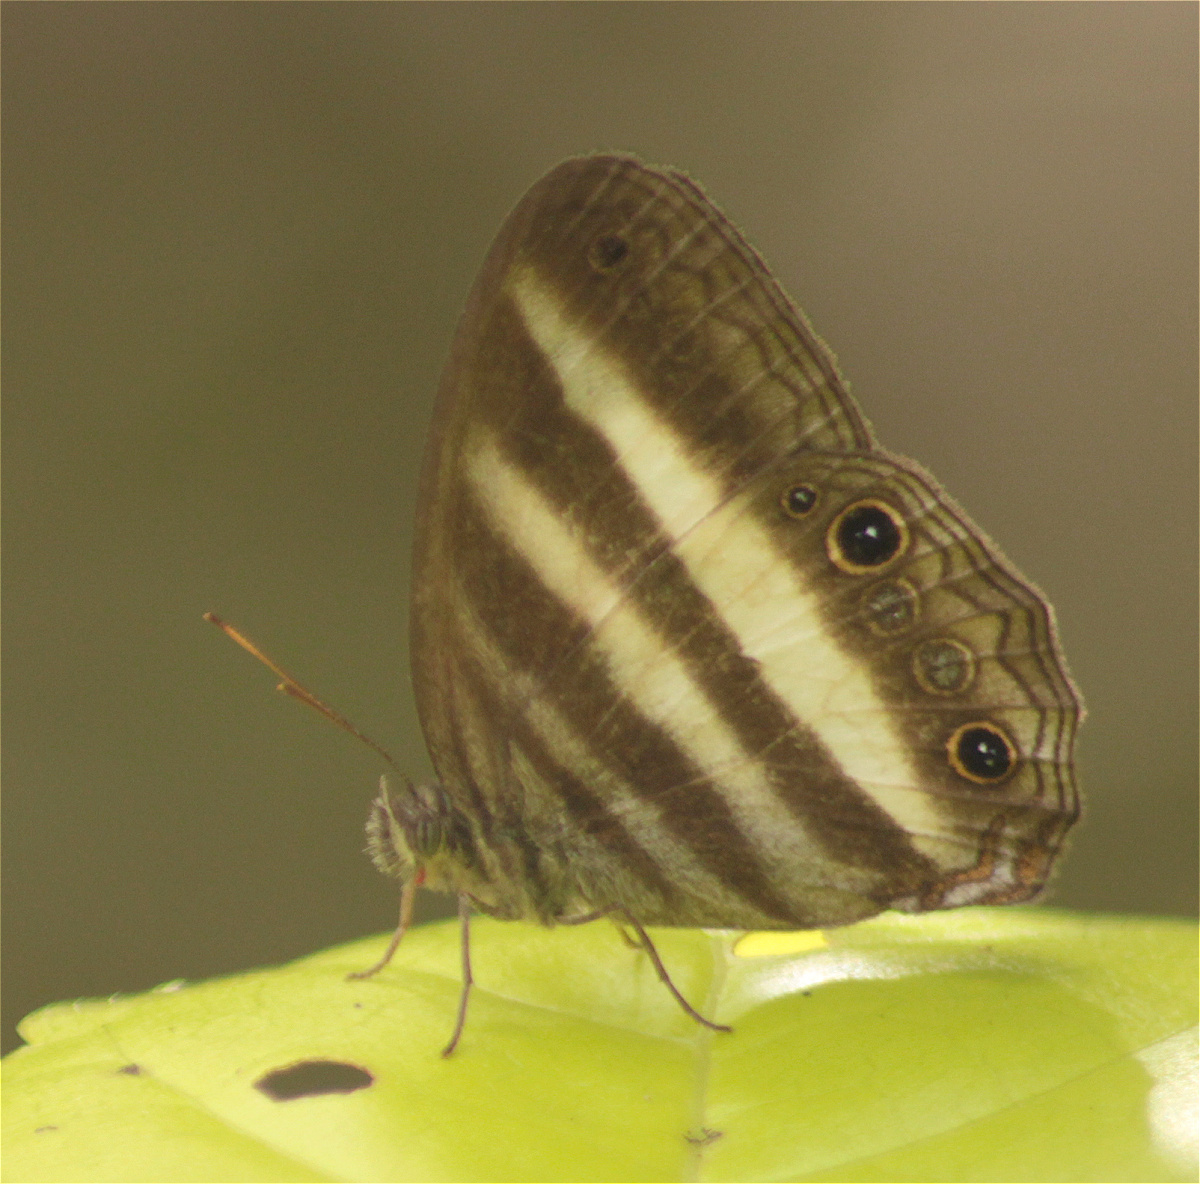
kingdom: Animalia
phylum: Arthropoda
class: Insecta
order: Lepidoptera
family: Nymphalidae
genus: Pareuptychia
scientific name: Pareuptychia hesione
